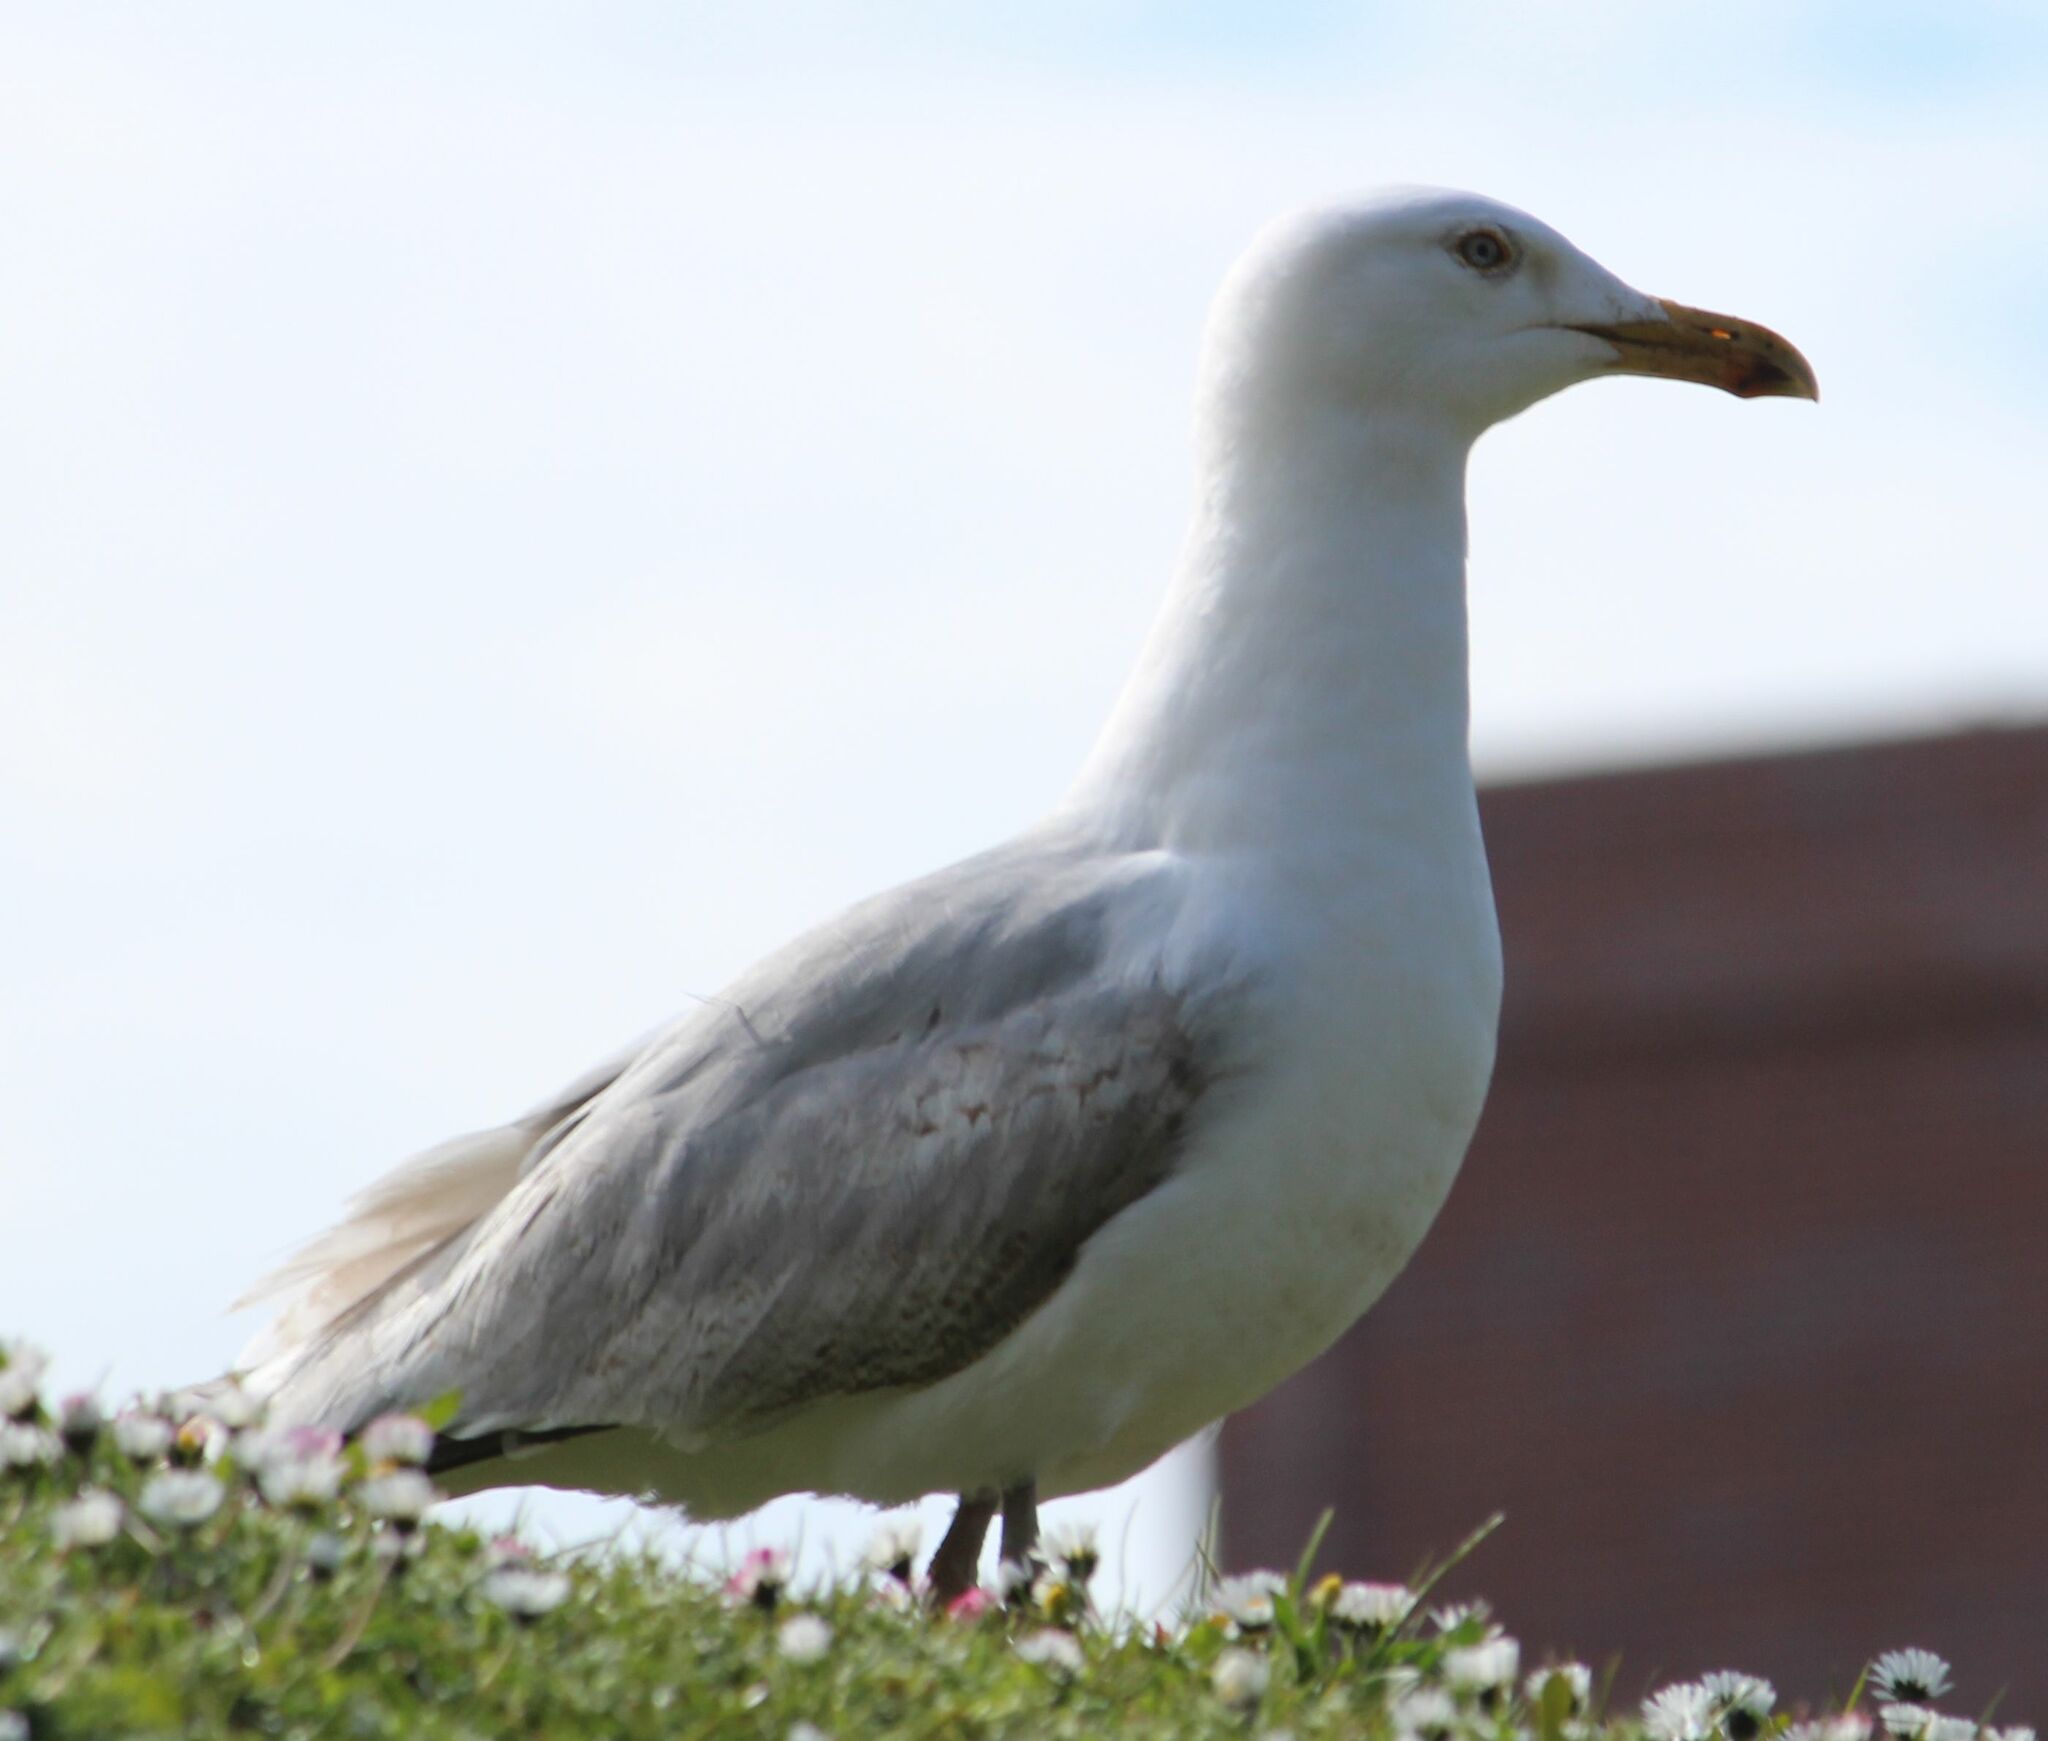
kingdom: Animalia
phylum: Chordata
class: Aves
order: Charadriiformes
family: Laridae
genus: Larus
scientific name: Larus argentatus
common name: Herring gull
